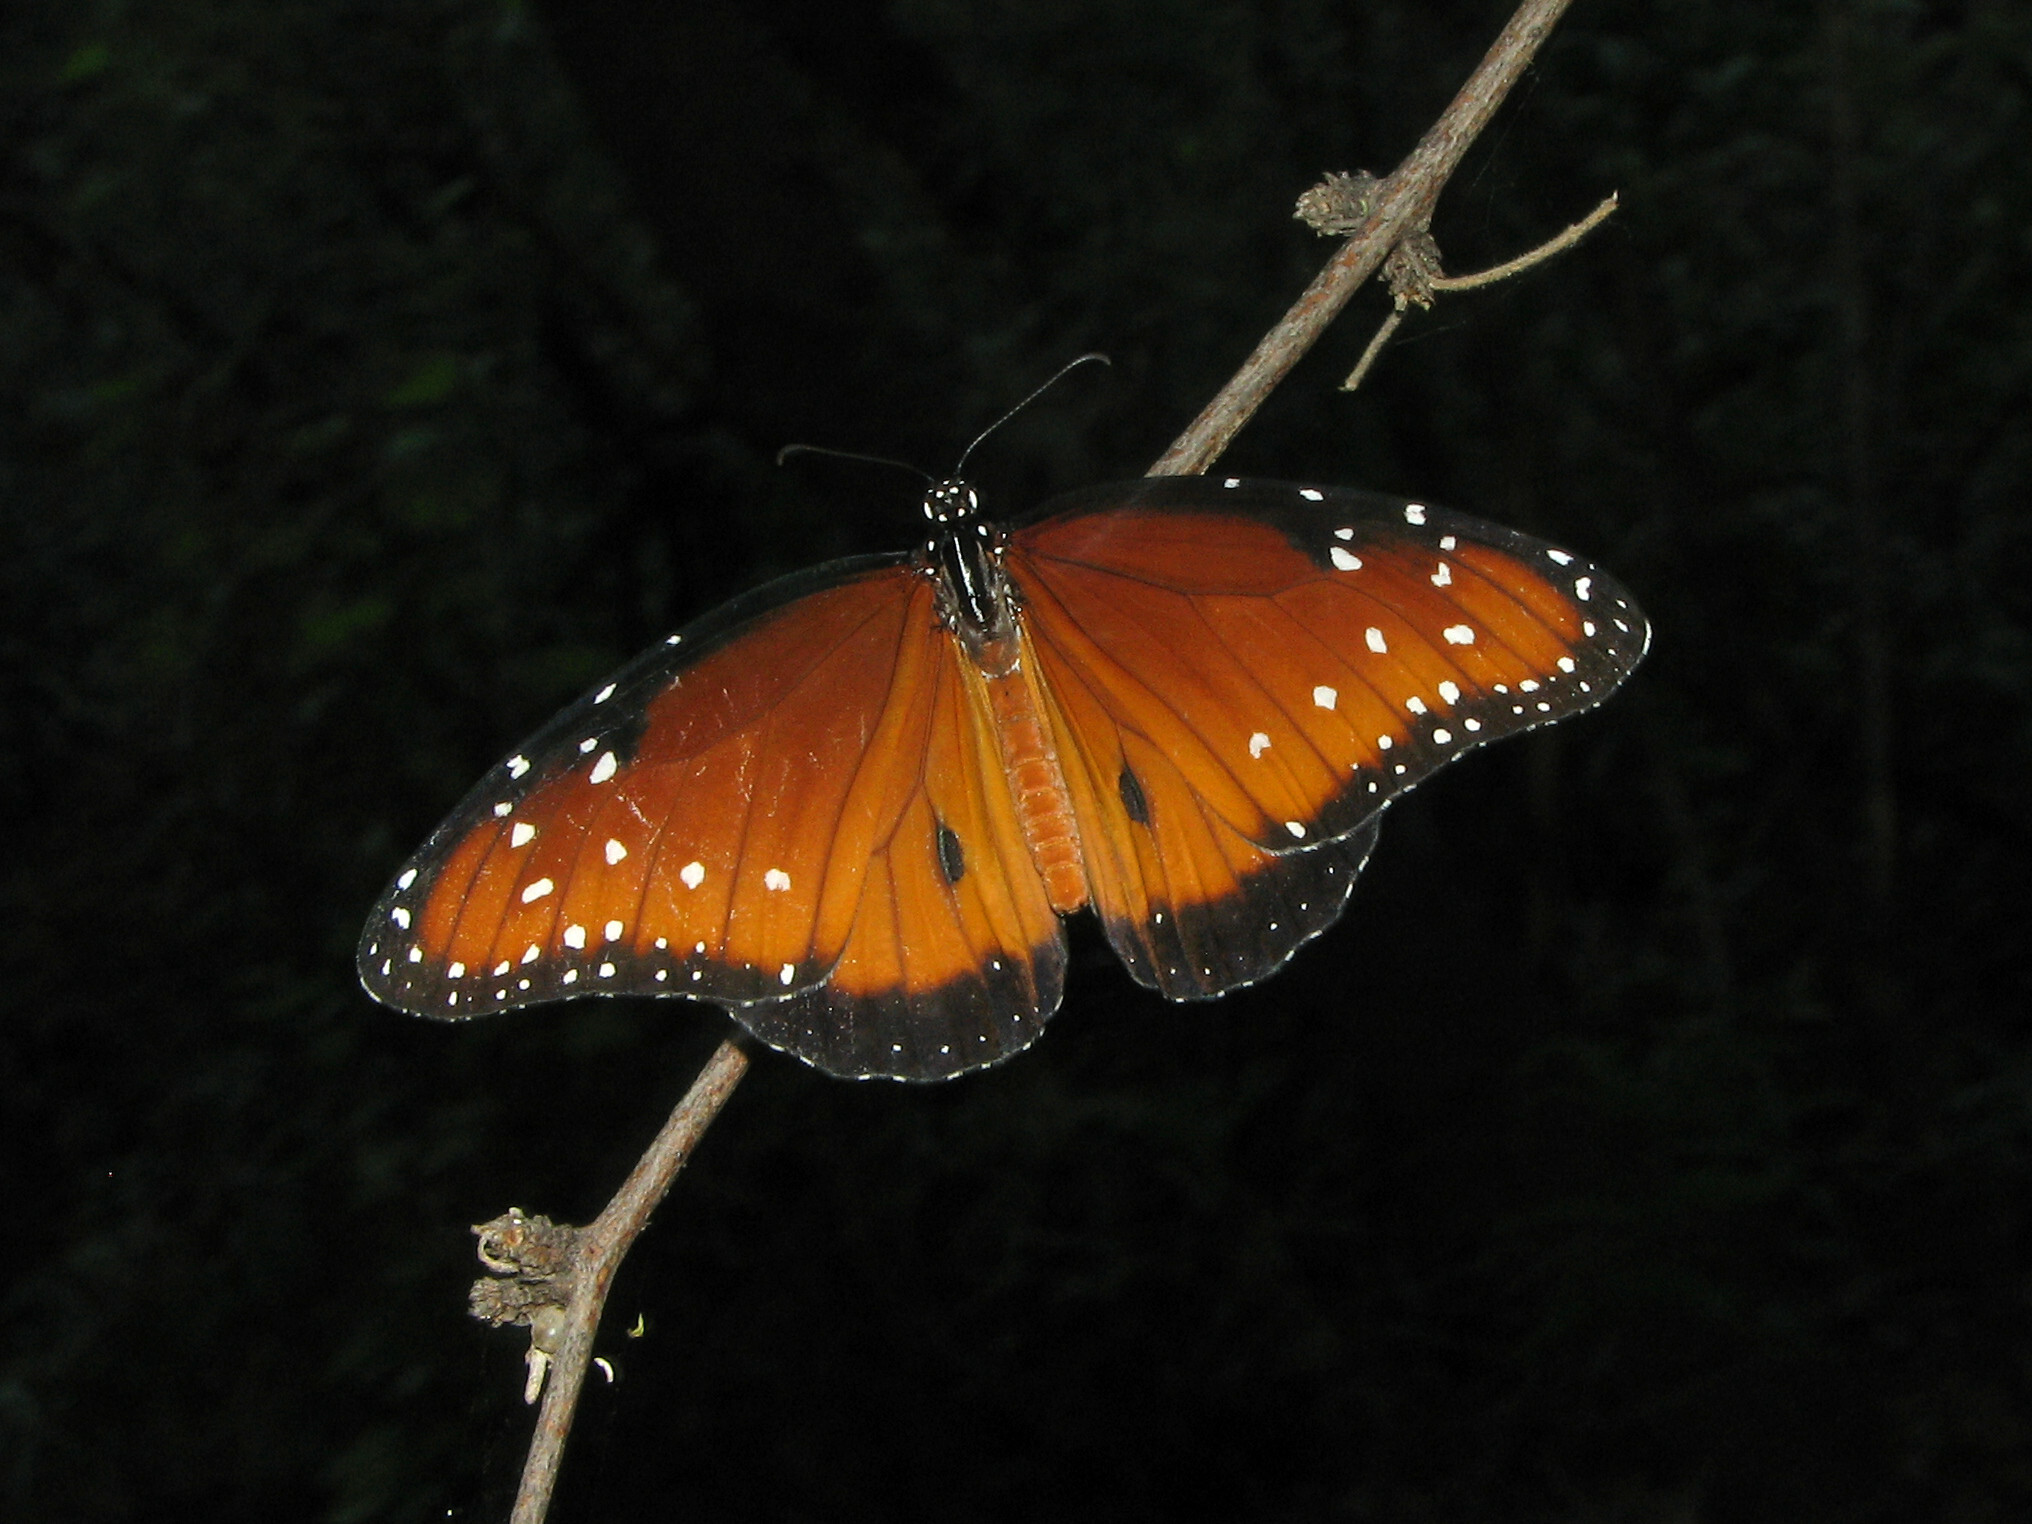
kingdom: Animalia
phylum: Arthropoda
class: Insecta
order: Lepidoptera
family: Nymphalidae
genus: Danaus
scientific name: Danaus gilippus
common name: Queen
